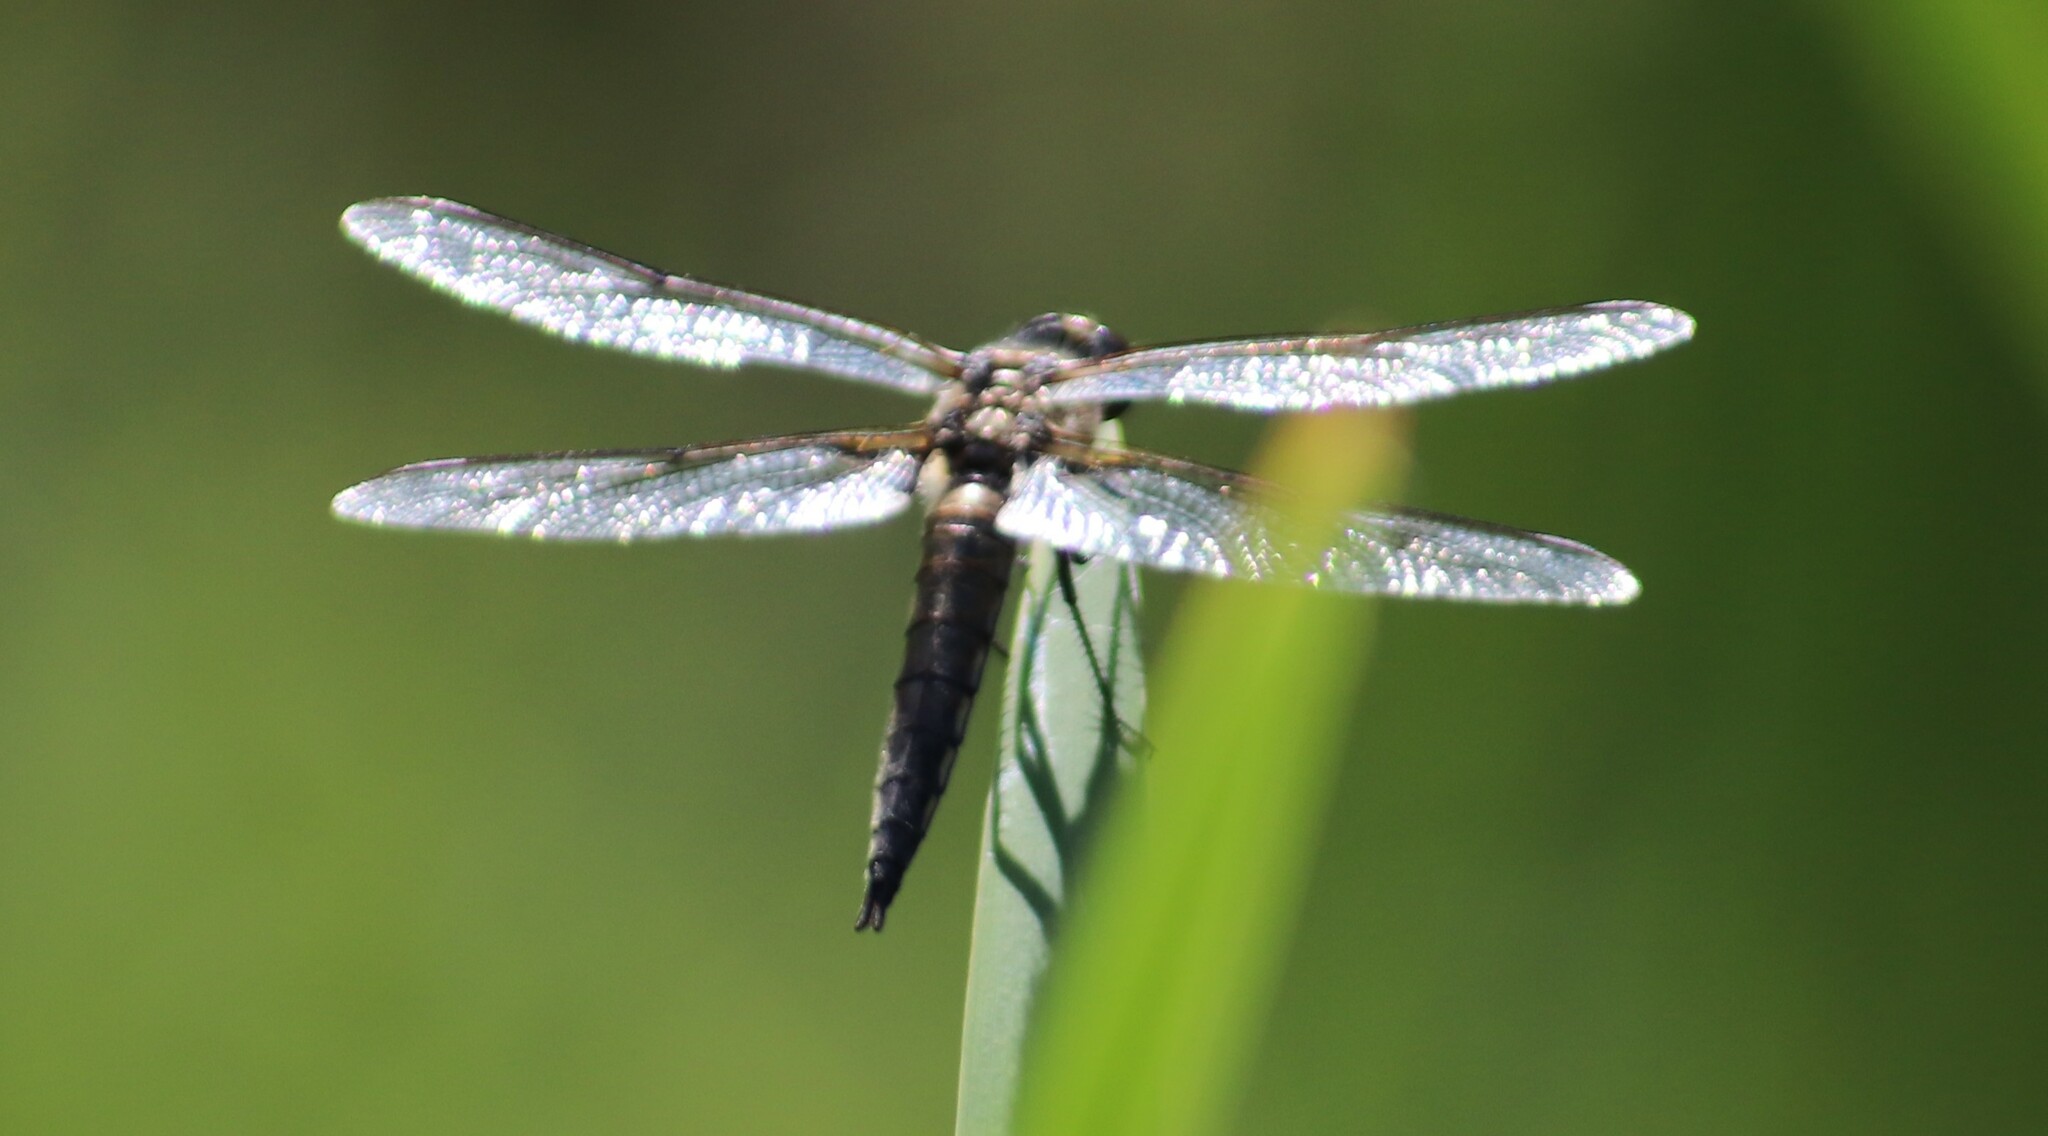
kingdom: Animalia
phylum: Arthropoda
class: Insecta
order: Odonata
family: Libellulidae
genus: Libellula
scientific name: Libellula quadrimaculata
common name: Four-spotted chaser
